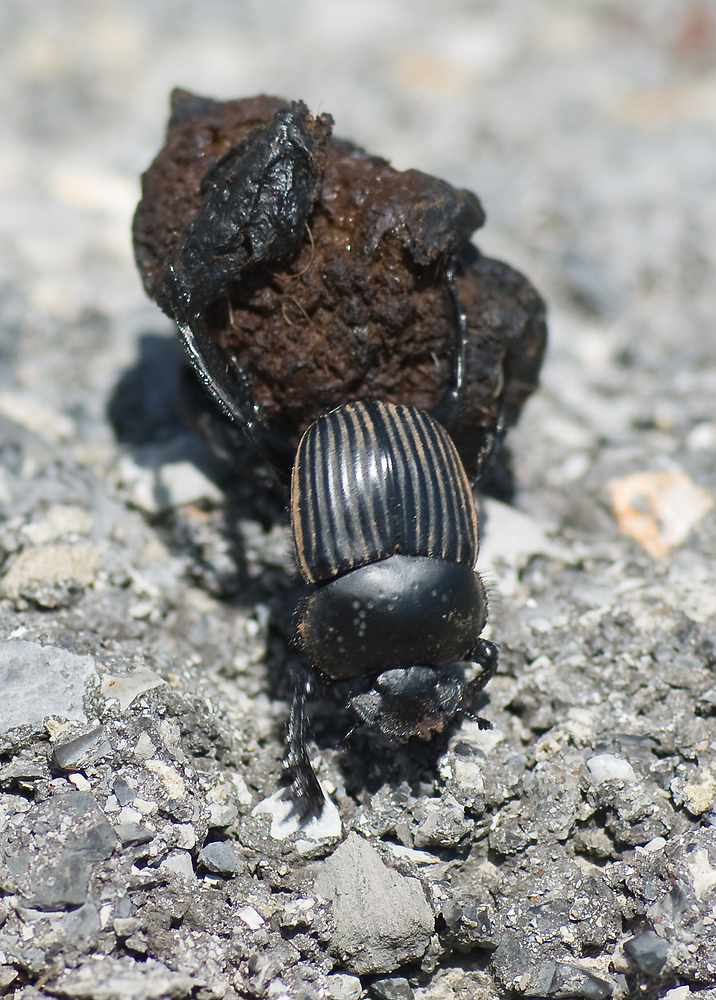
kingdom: Animalia
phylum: Arthropoda
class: Insecta
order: Coleoptera
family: Scarabaeidae
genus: Ateuchetus
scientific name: Ateuchetus laticollis
